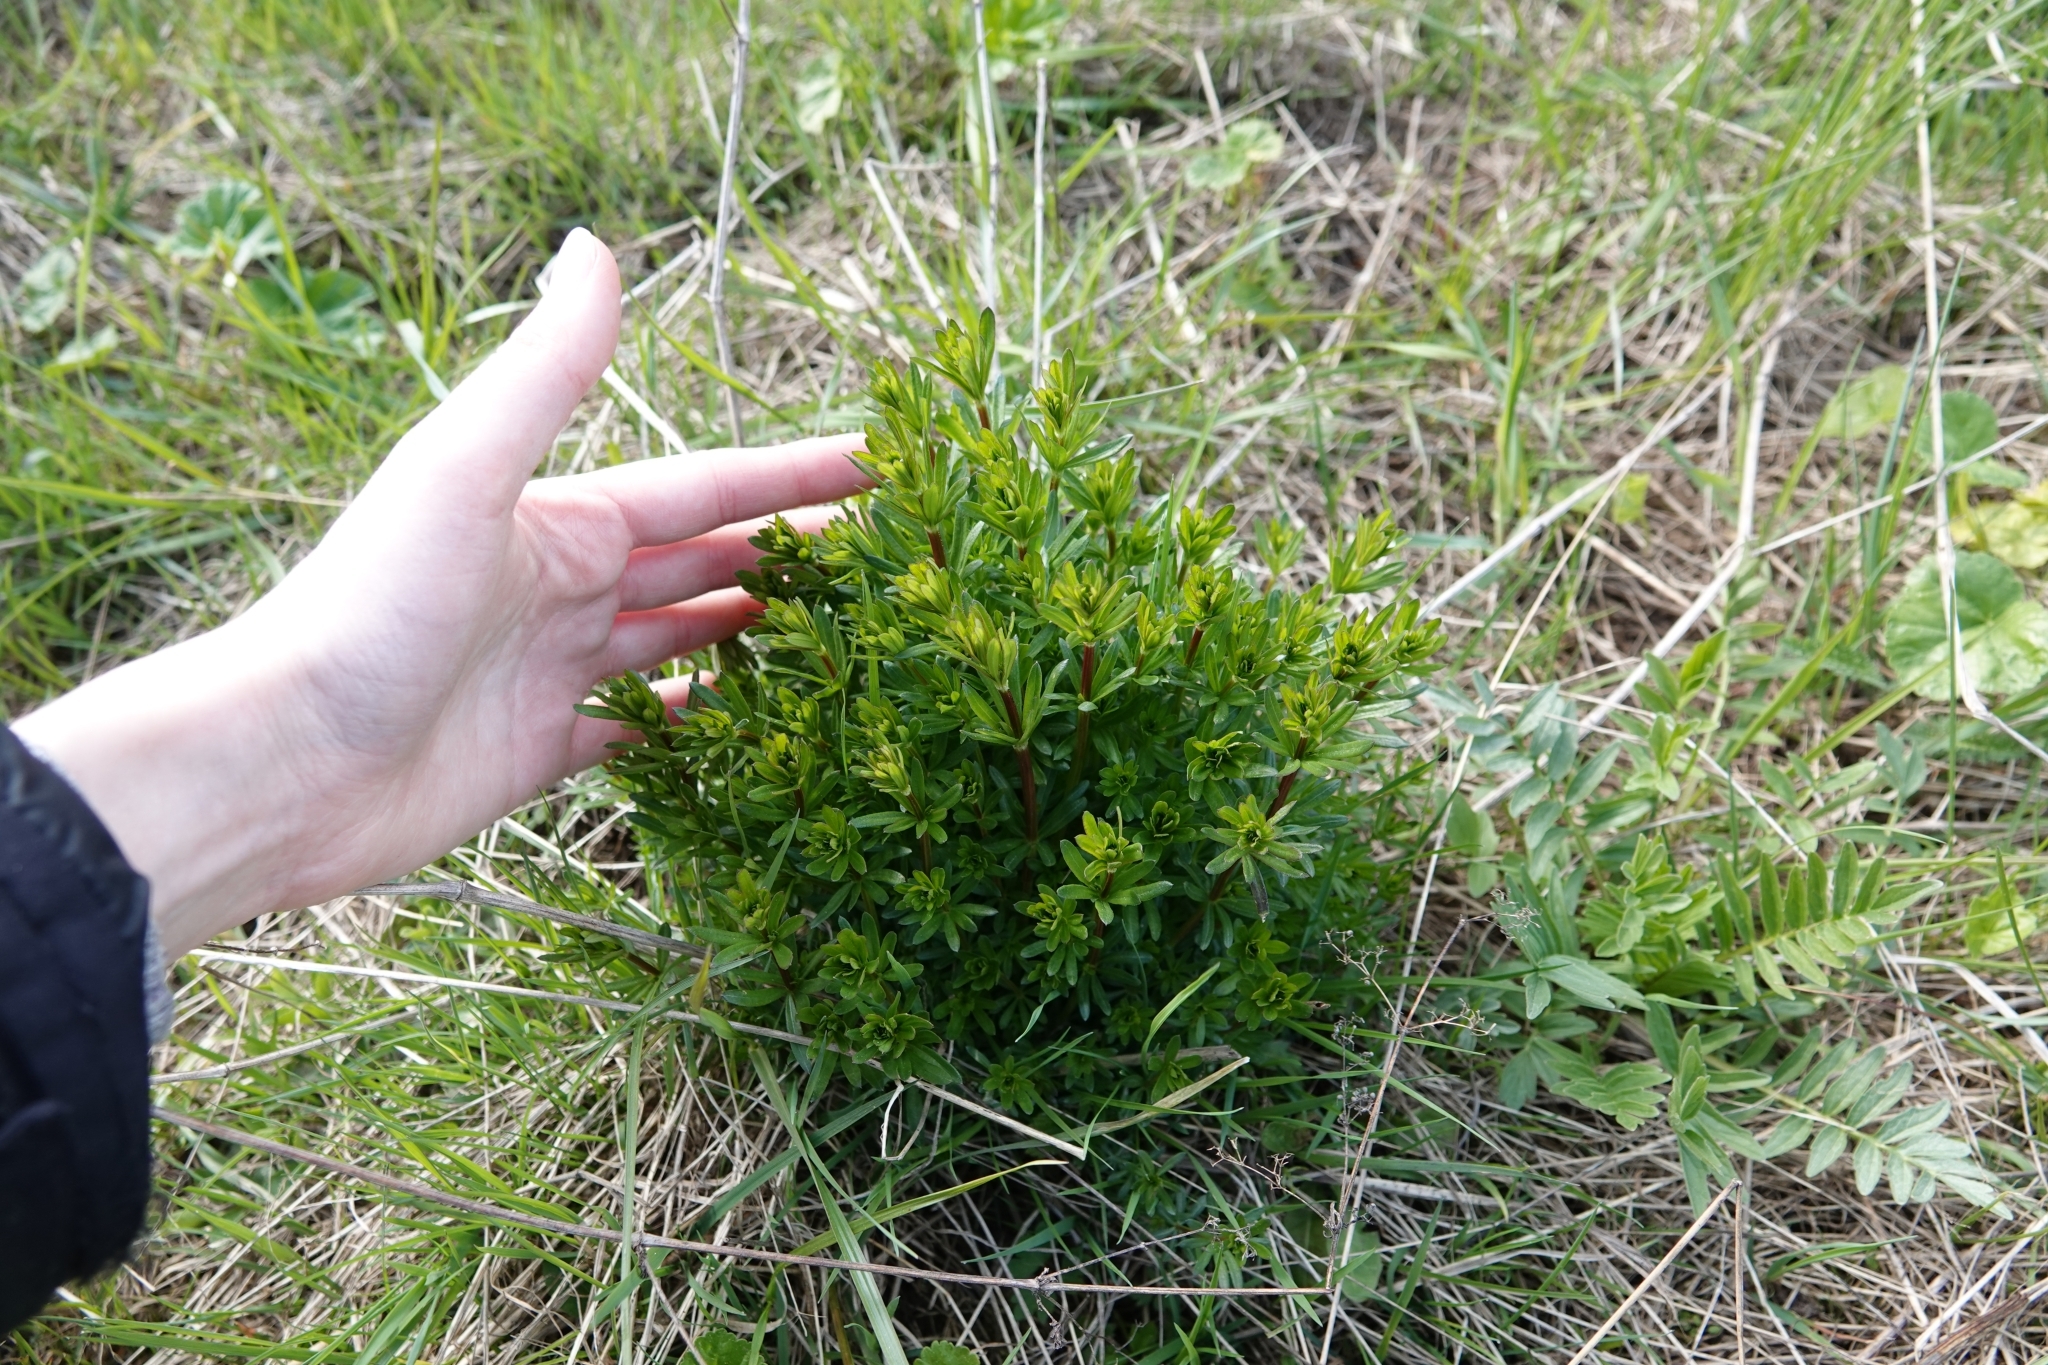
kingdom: Plantae
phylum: Tracheophyta
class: Magnoliopsida
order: Gentianales
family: Rubiaceae
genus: Galium
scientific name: Galium mollugo
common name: Hedge bedstraw
